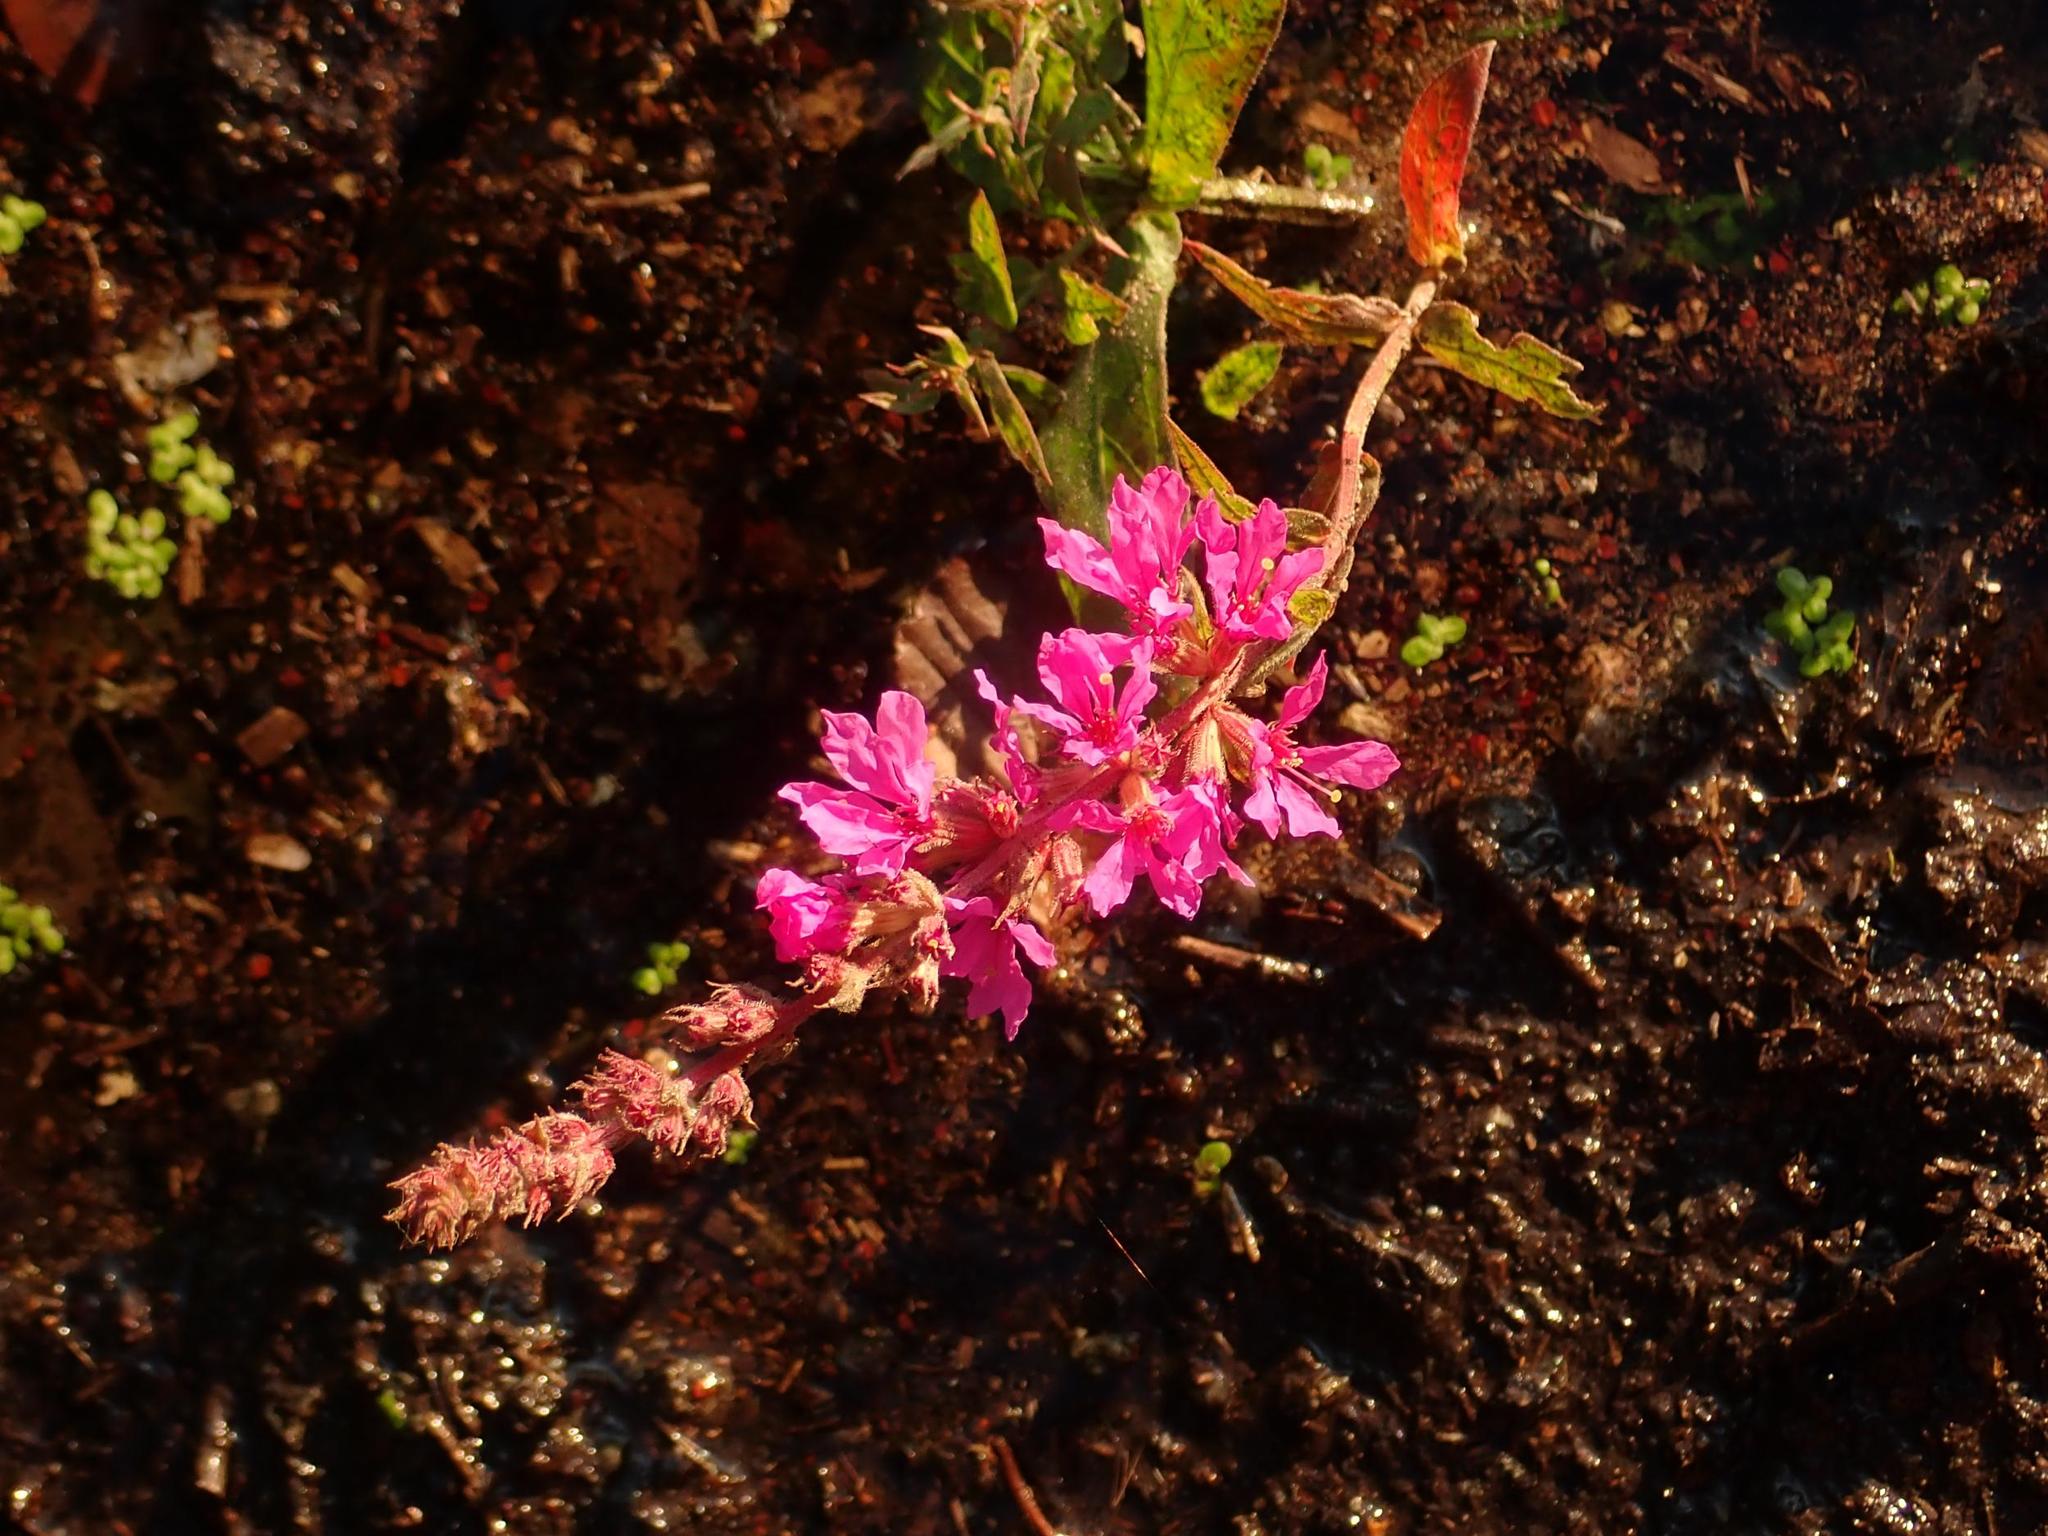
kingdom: Plantae
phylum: Tracheophyta
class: Magnoliopsida
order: Myrtales
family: Lythraceae
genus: Lythrum
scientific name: Lythrum salicaria
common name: Purple loosestrife
